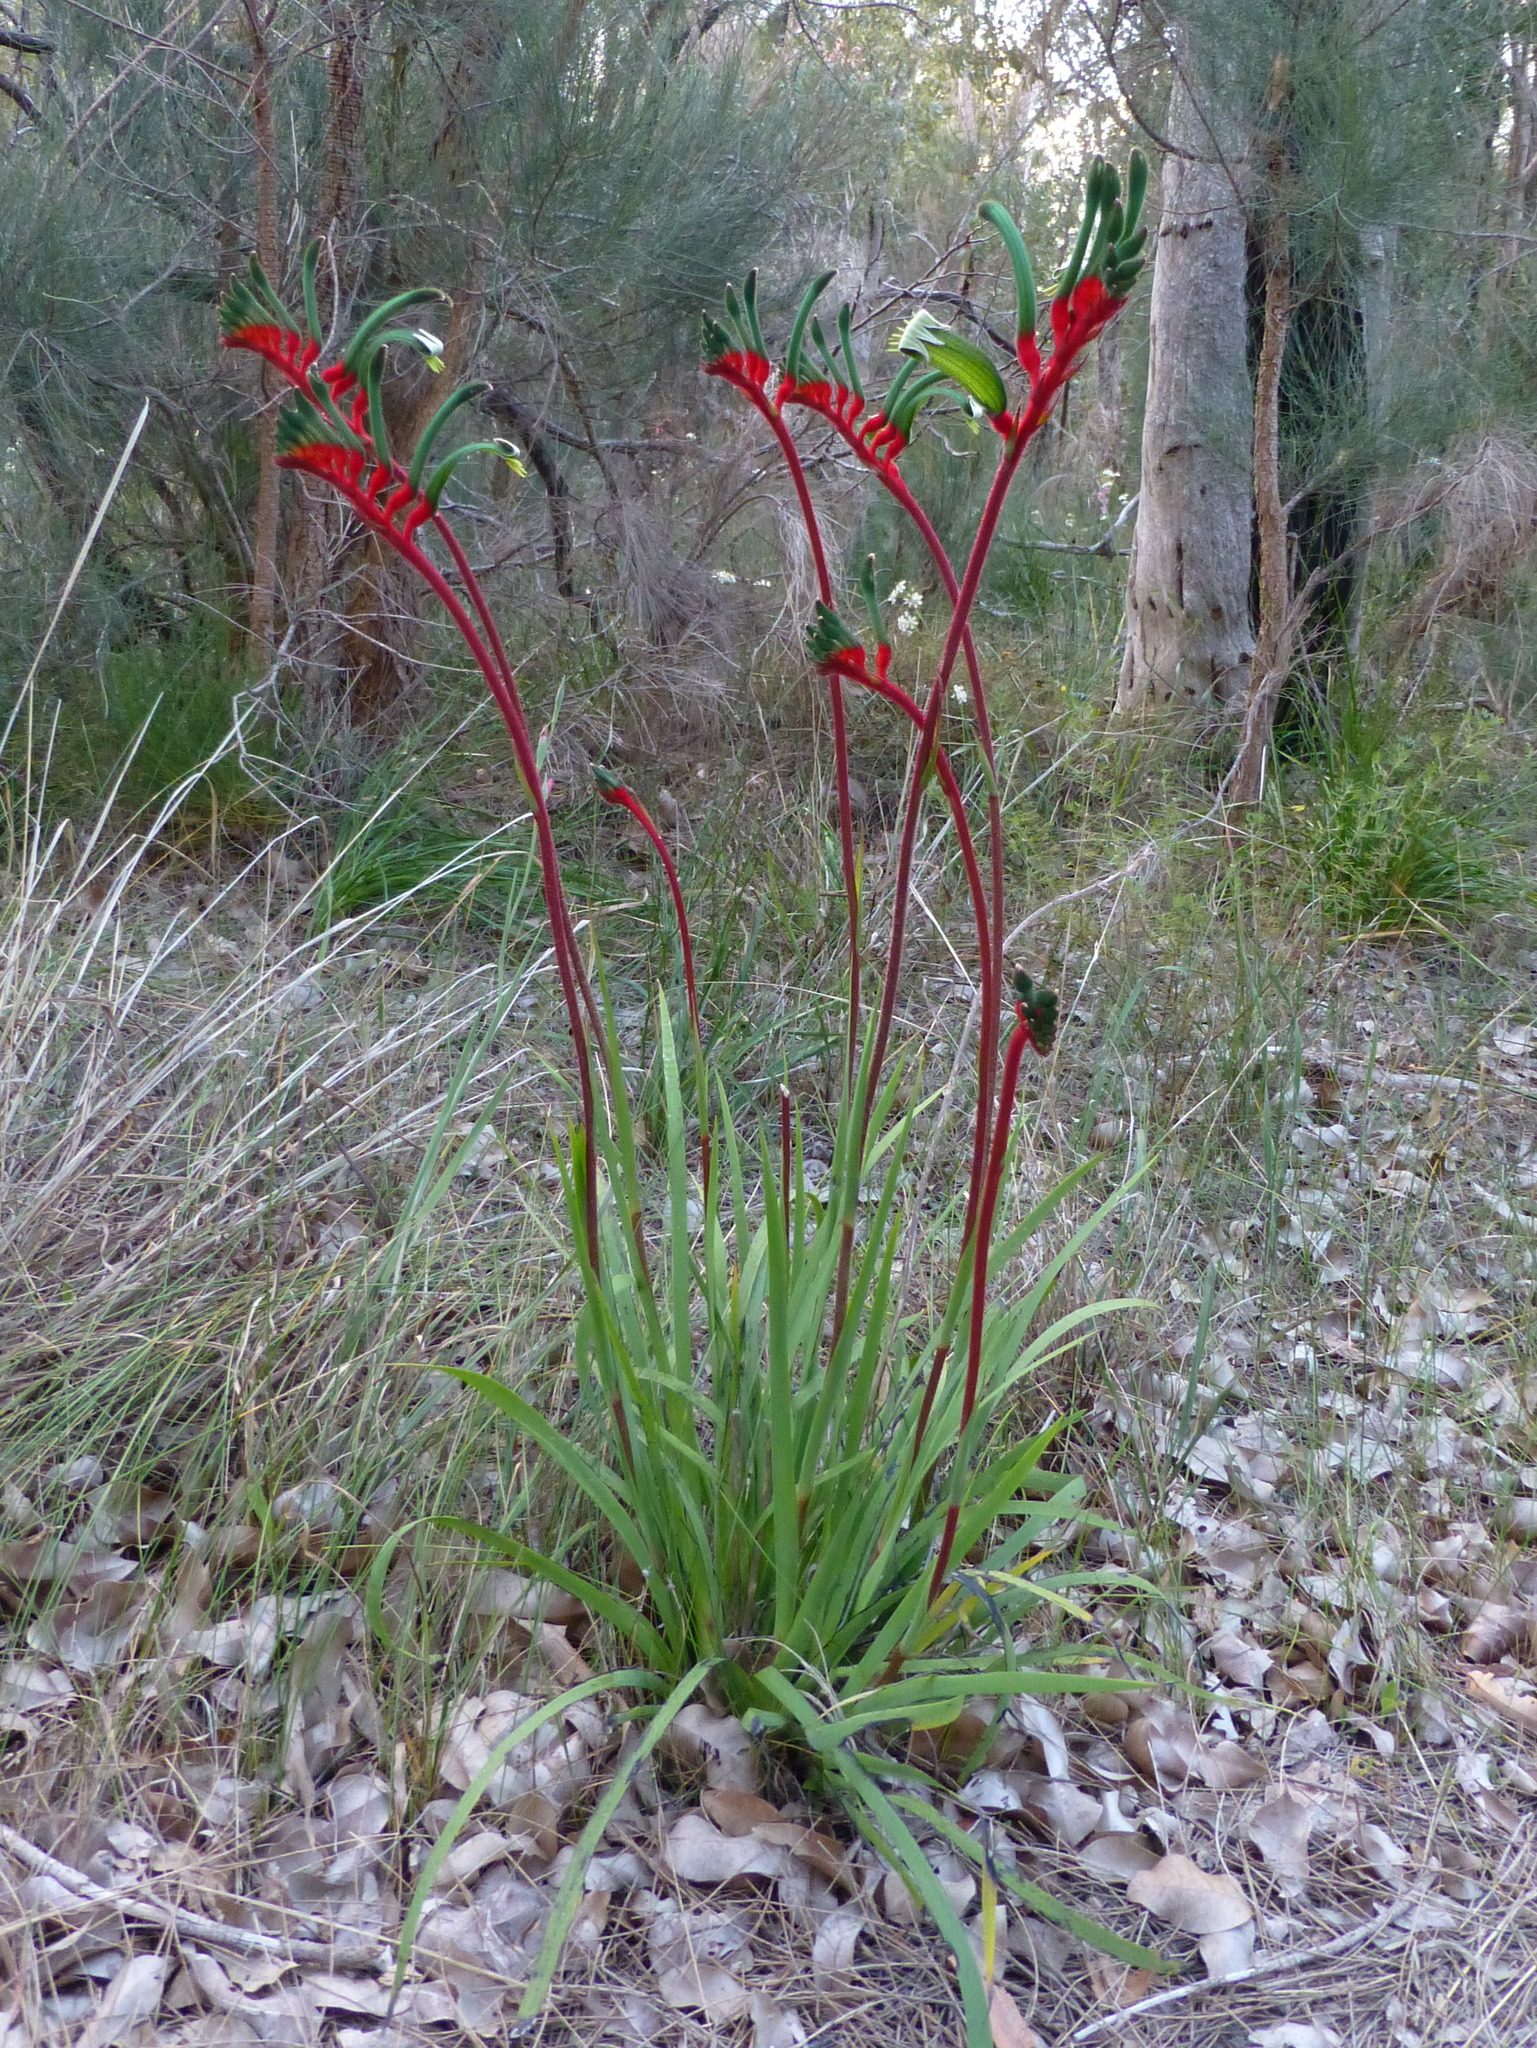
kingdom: Plantae
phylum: Tracheophyta
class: Liliopsida
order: Commelinales
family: Haemodoraceae
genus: Anigozanthos
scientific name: Anigozanthos manglesii
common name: Mangles's kangaroo-paw
